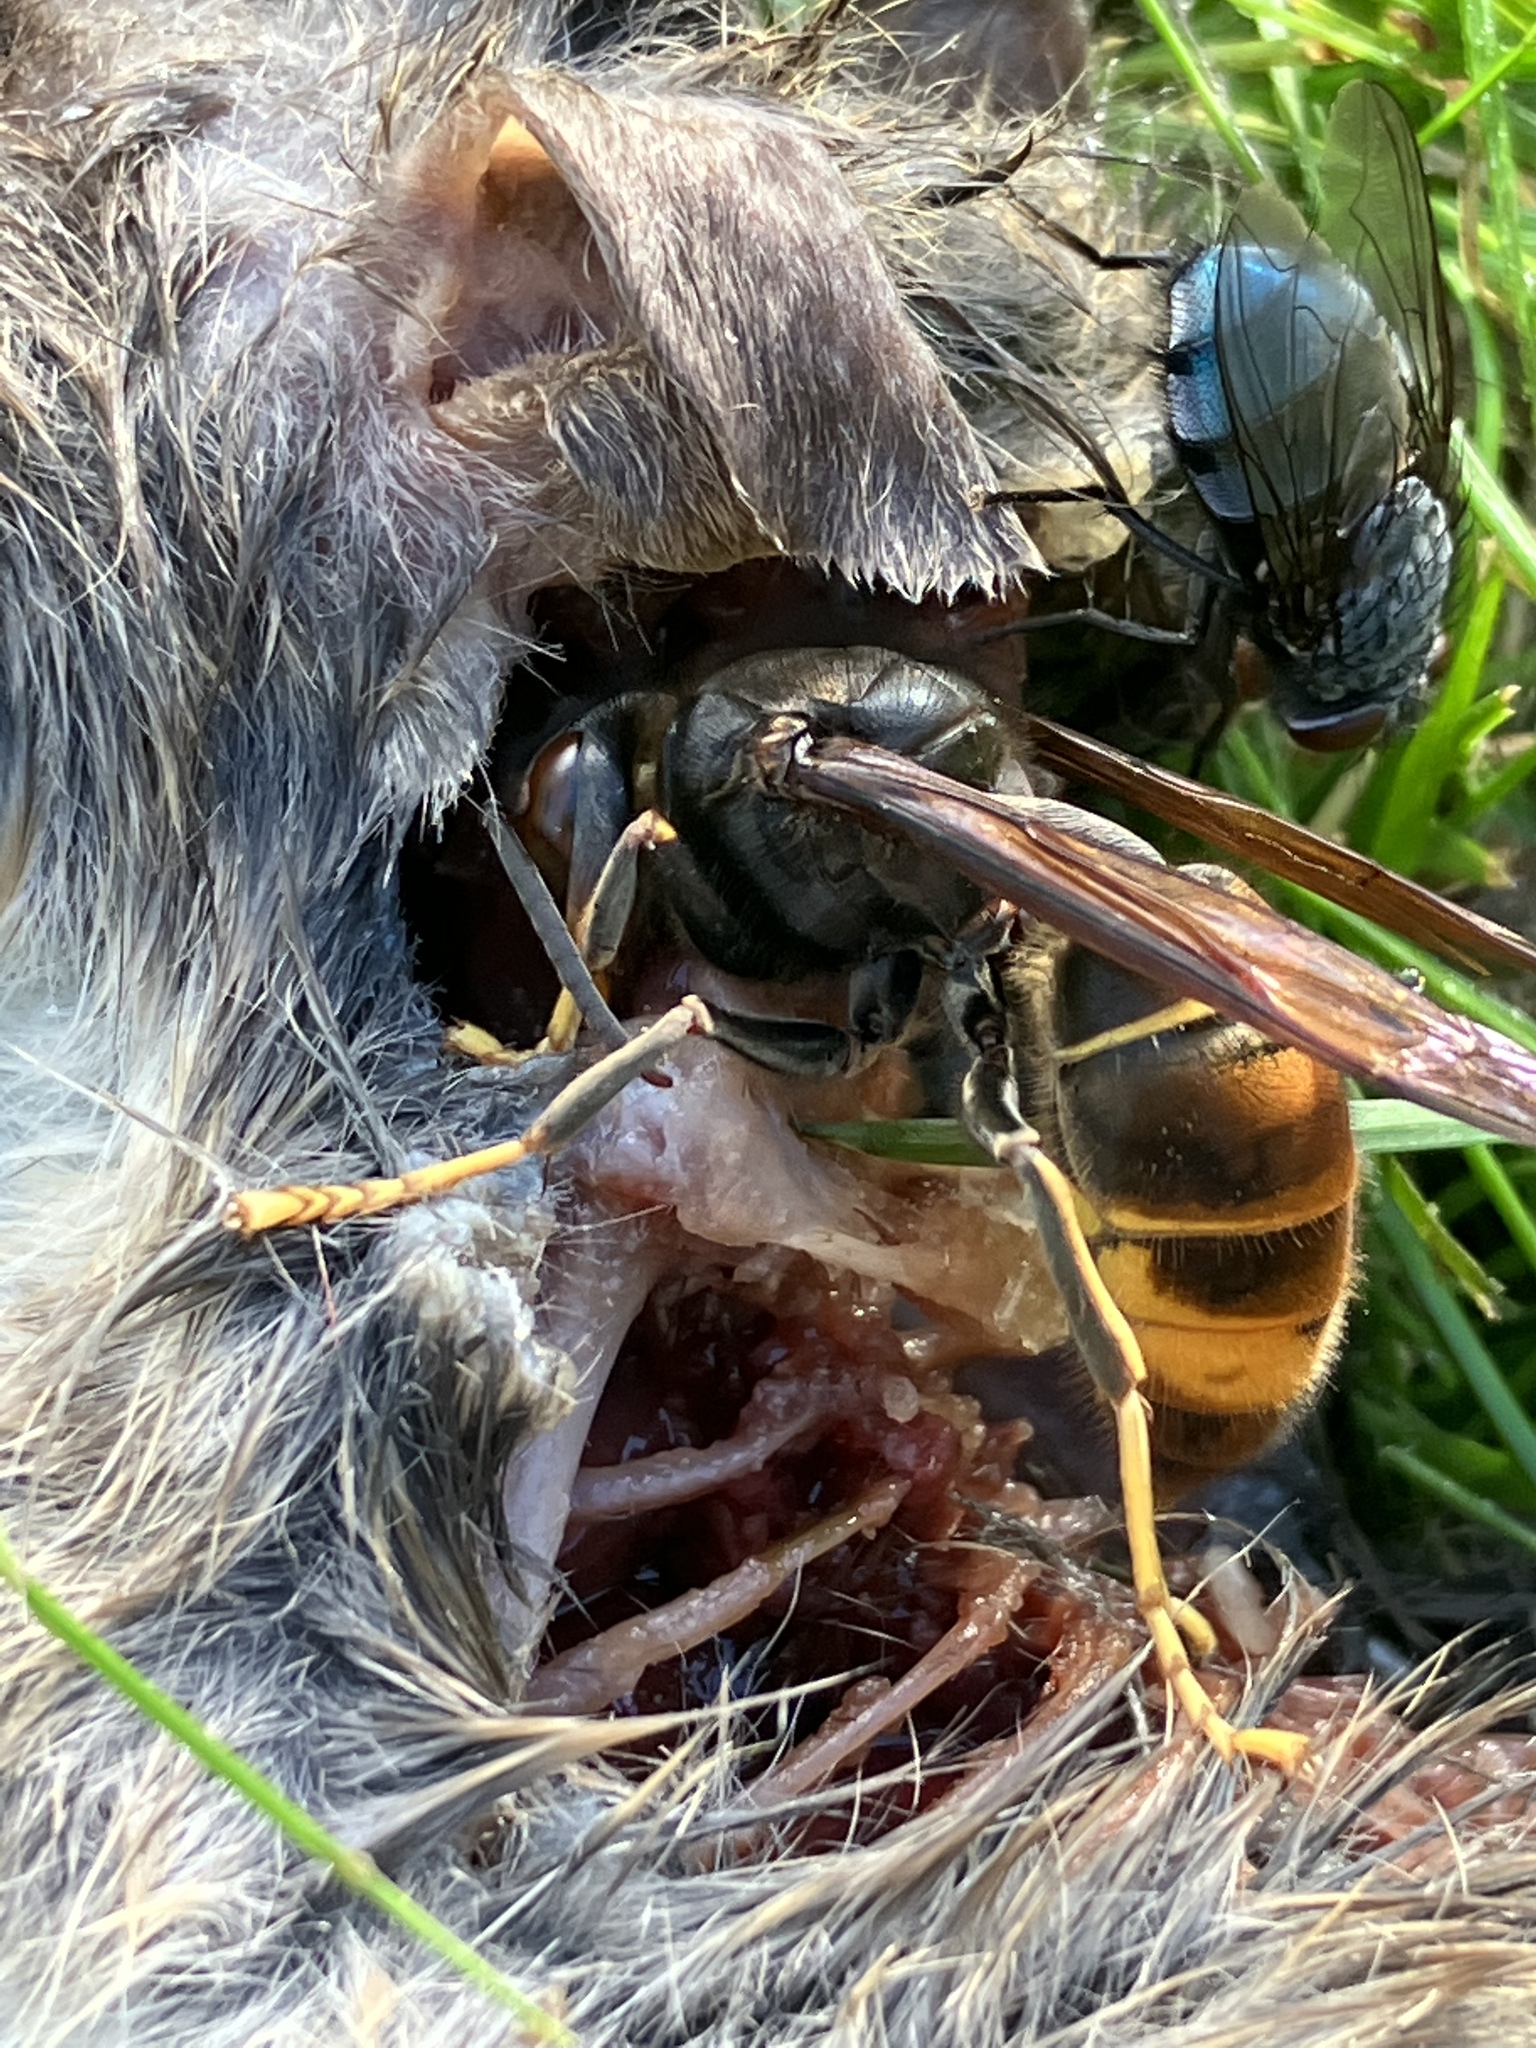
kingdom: Animalia
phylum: Arthropoda
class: Insecta
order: Hymenoptera
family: Vespidae
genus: Vespa
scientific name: Vespa velutina
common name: Asian hornet
